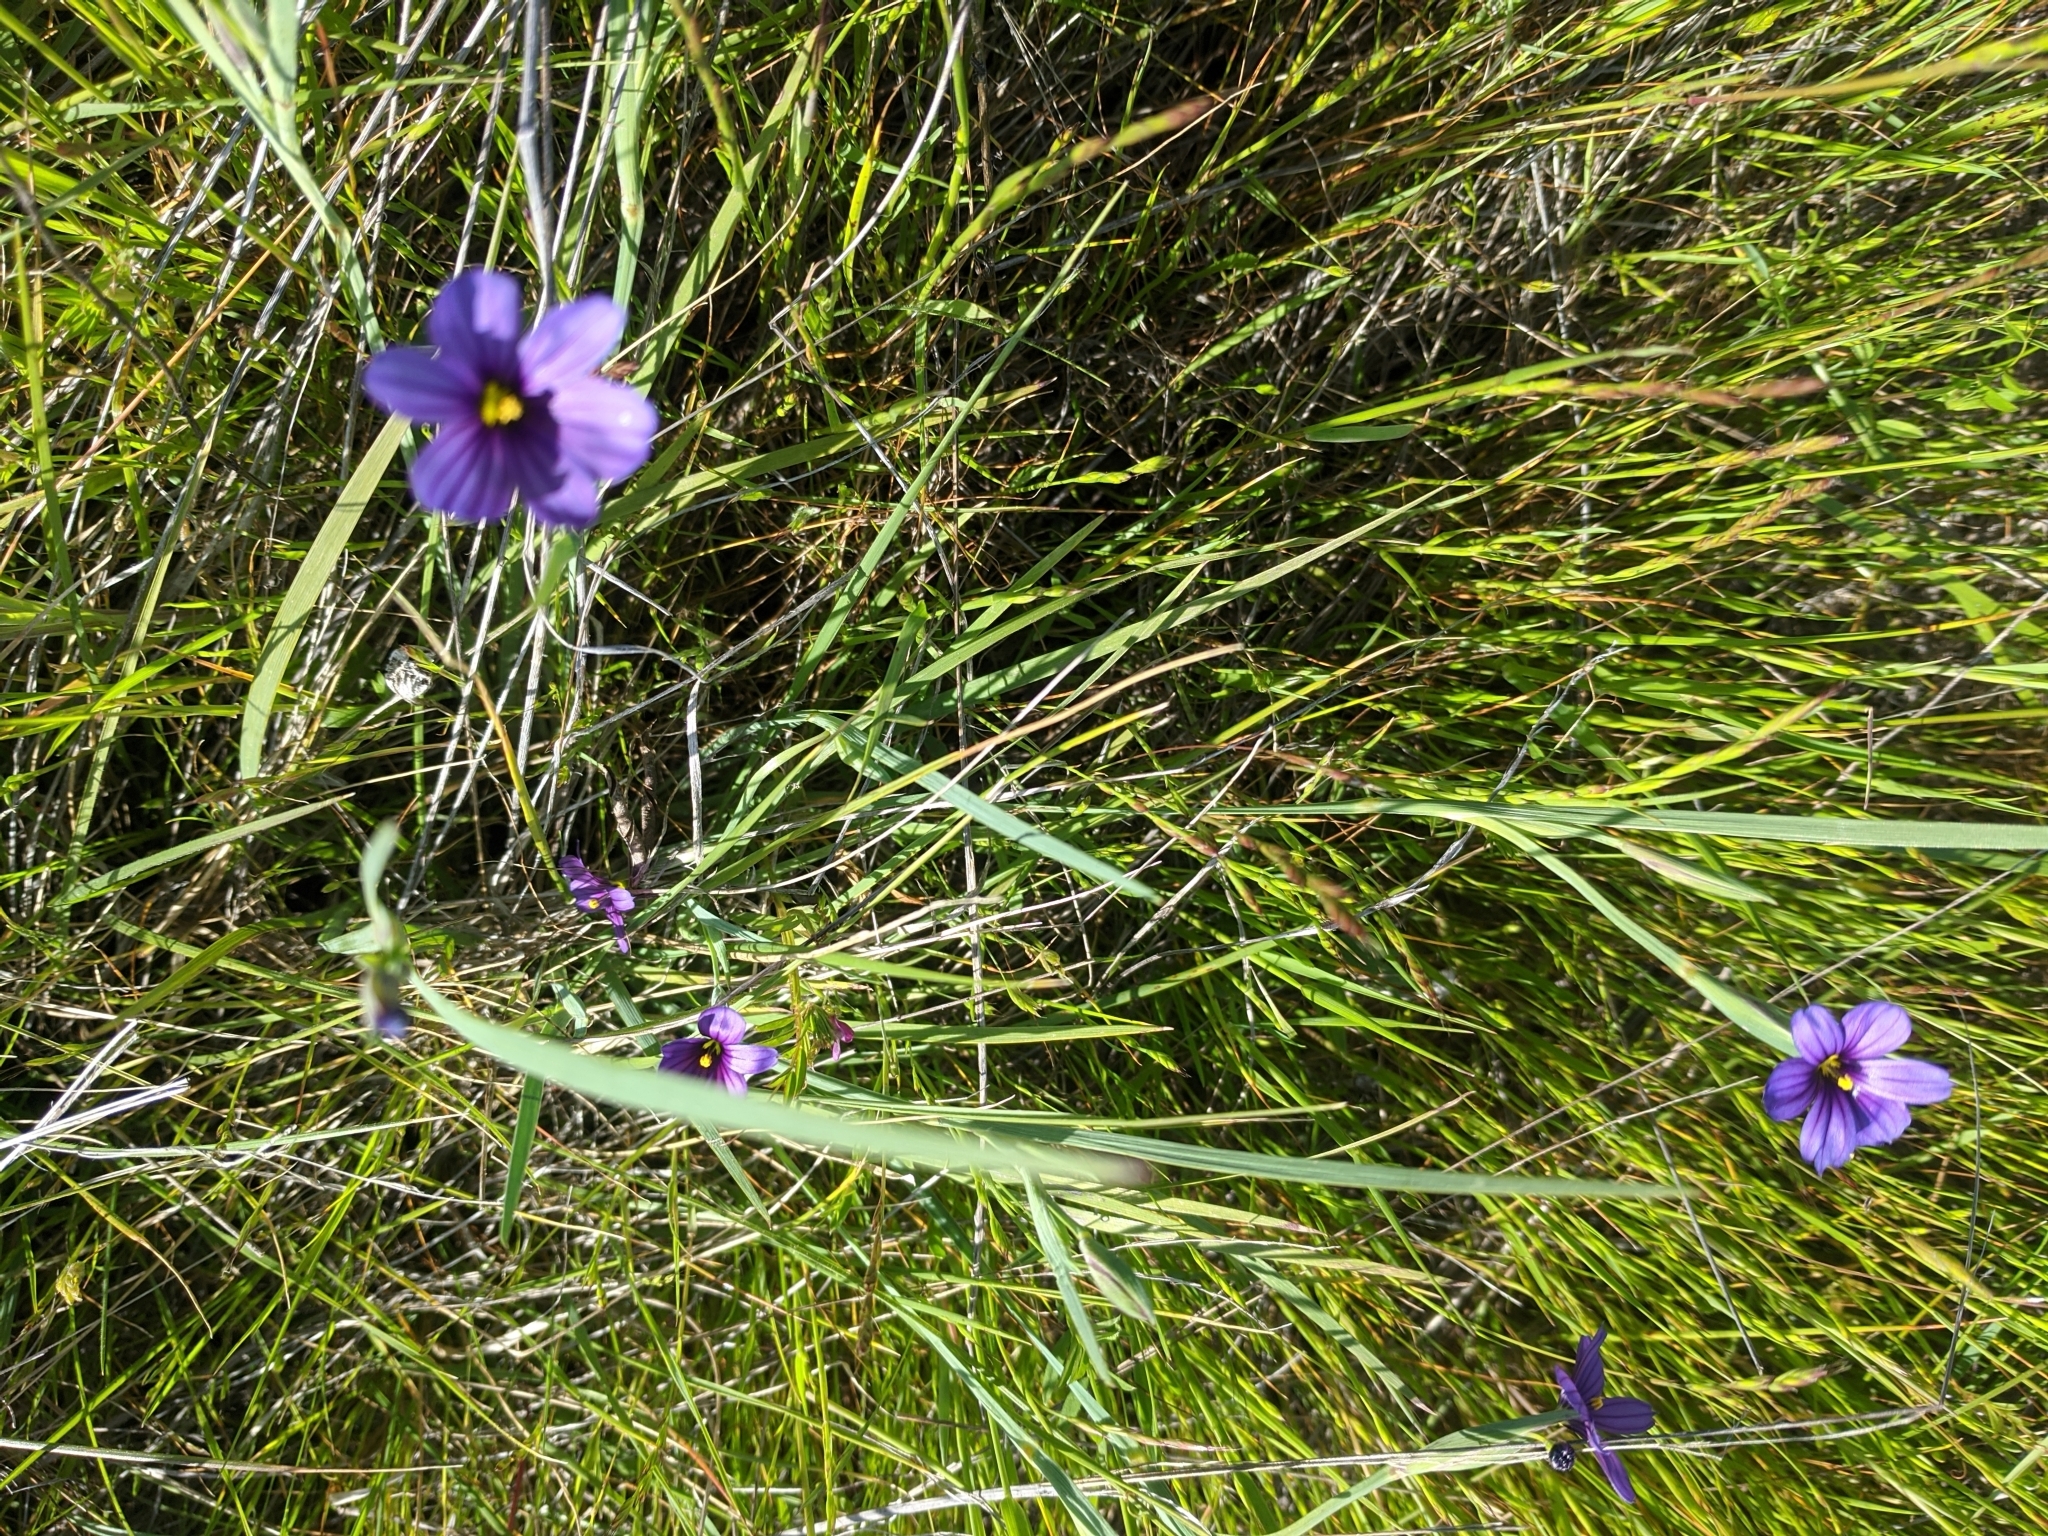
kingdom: Plantae
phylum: Tracheophyta
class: Liliopsida
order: Asparagales
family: Iridaceae
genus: Sisyrinchium
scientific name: Sisyrinchium bellum
